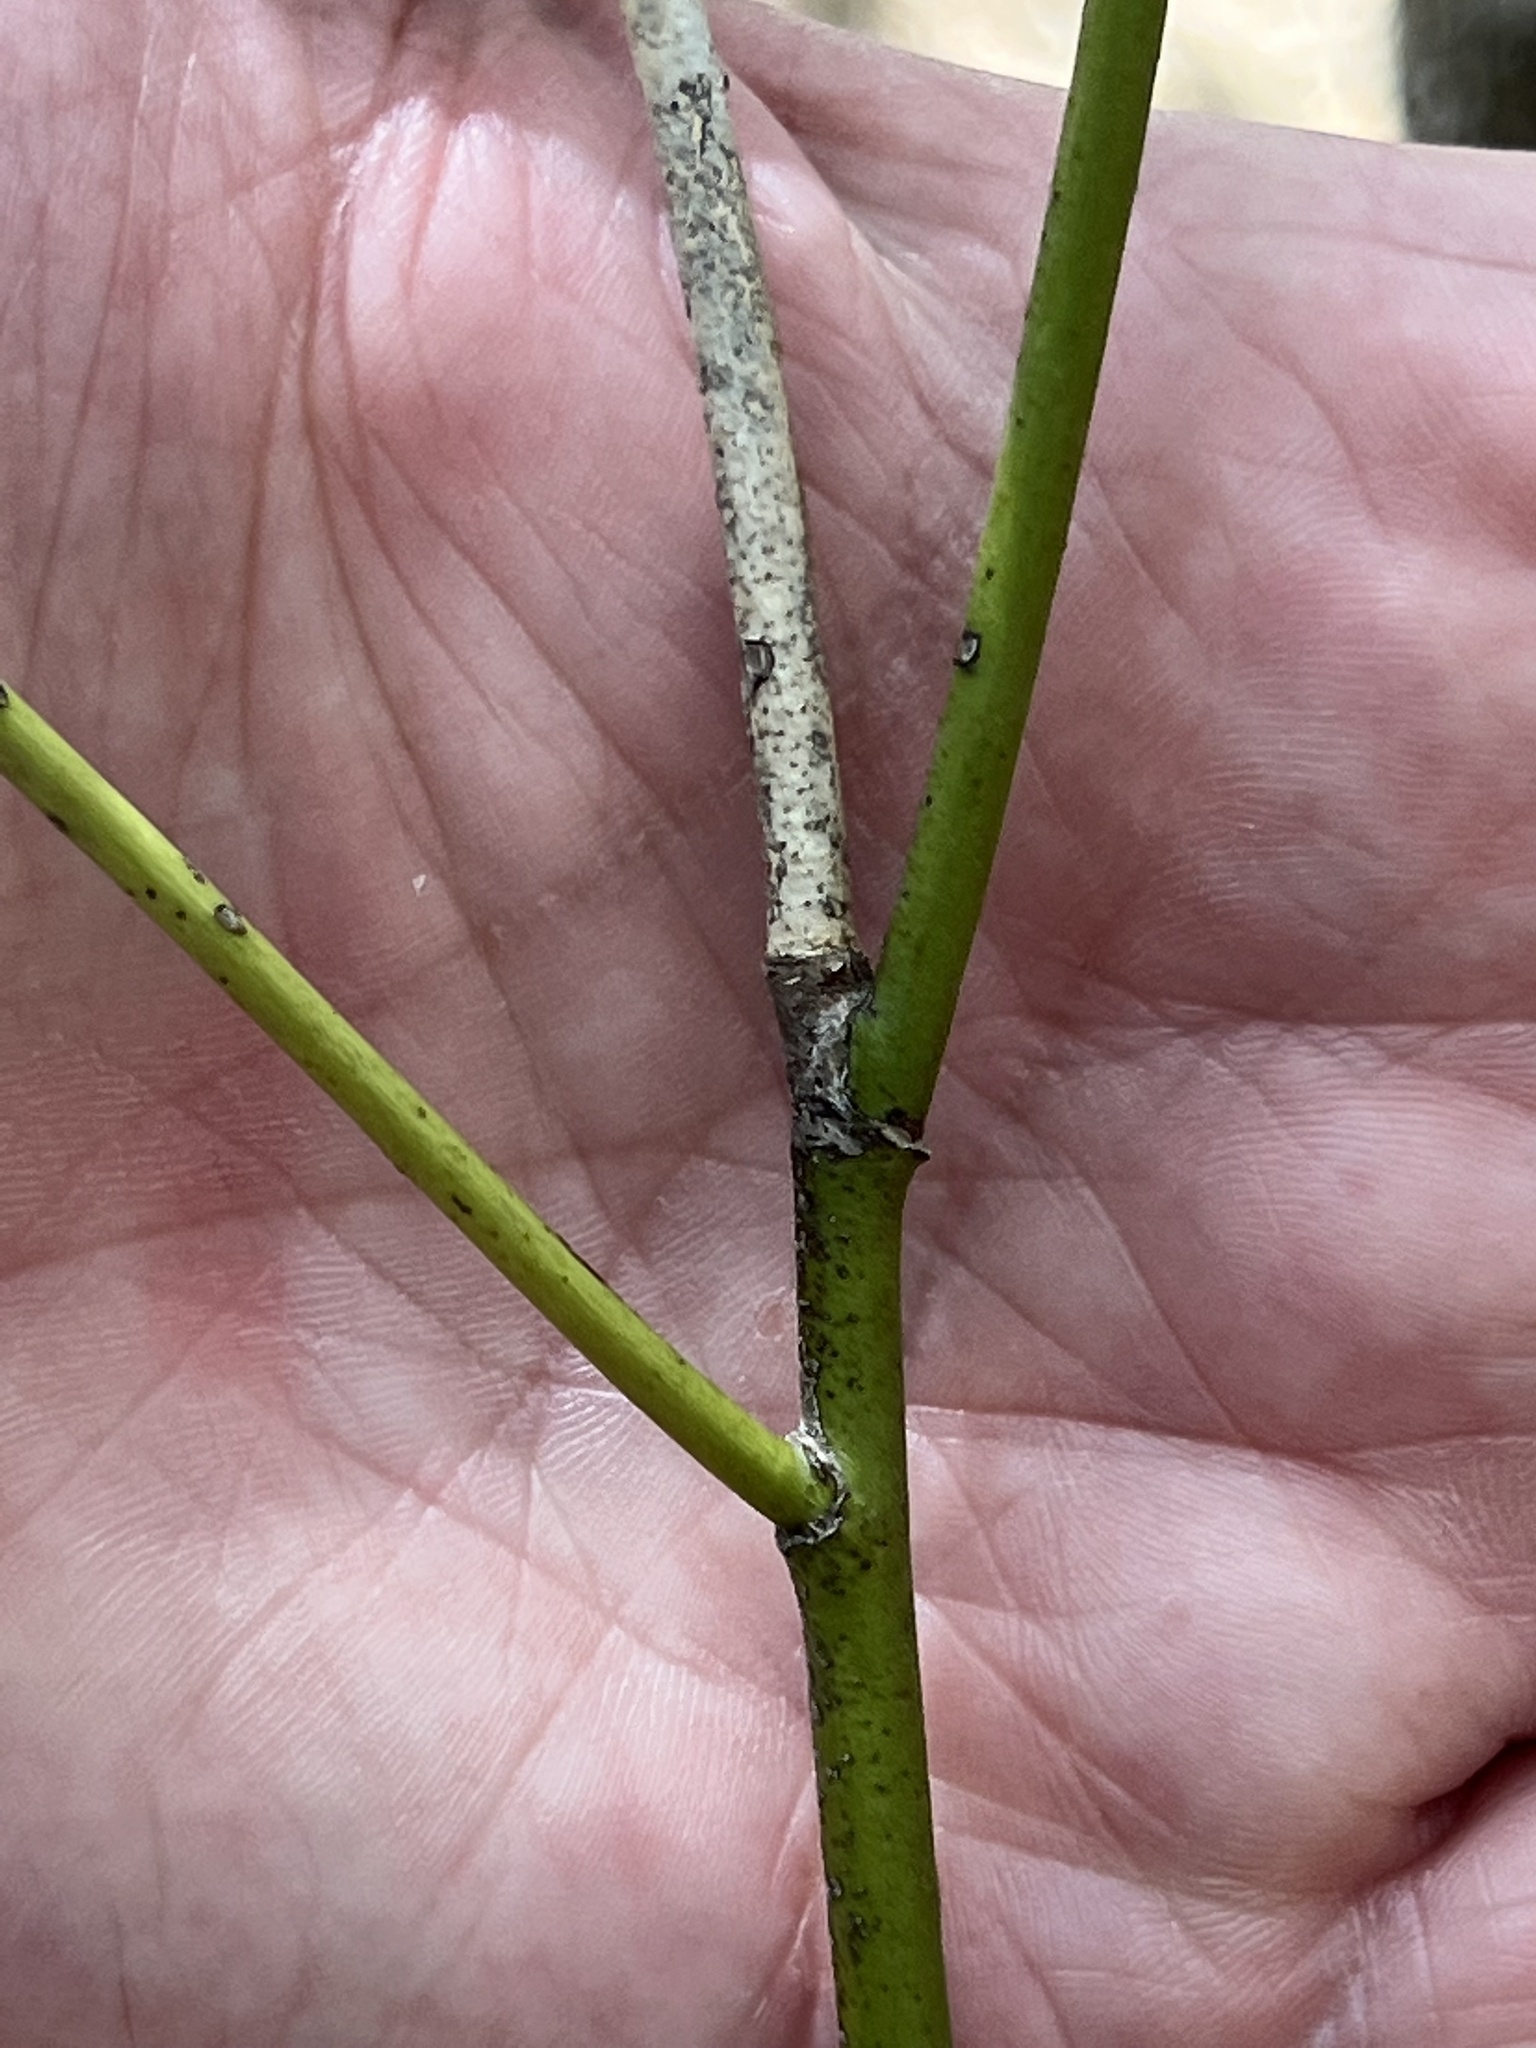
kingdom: Plantae
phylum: Tracheophyta
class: Magnoliopsida
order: Sapindales
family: Rutaceae
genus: Ptelea
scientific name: Ptelea trifoliata
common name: Common hop-tree
